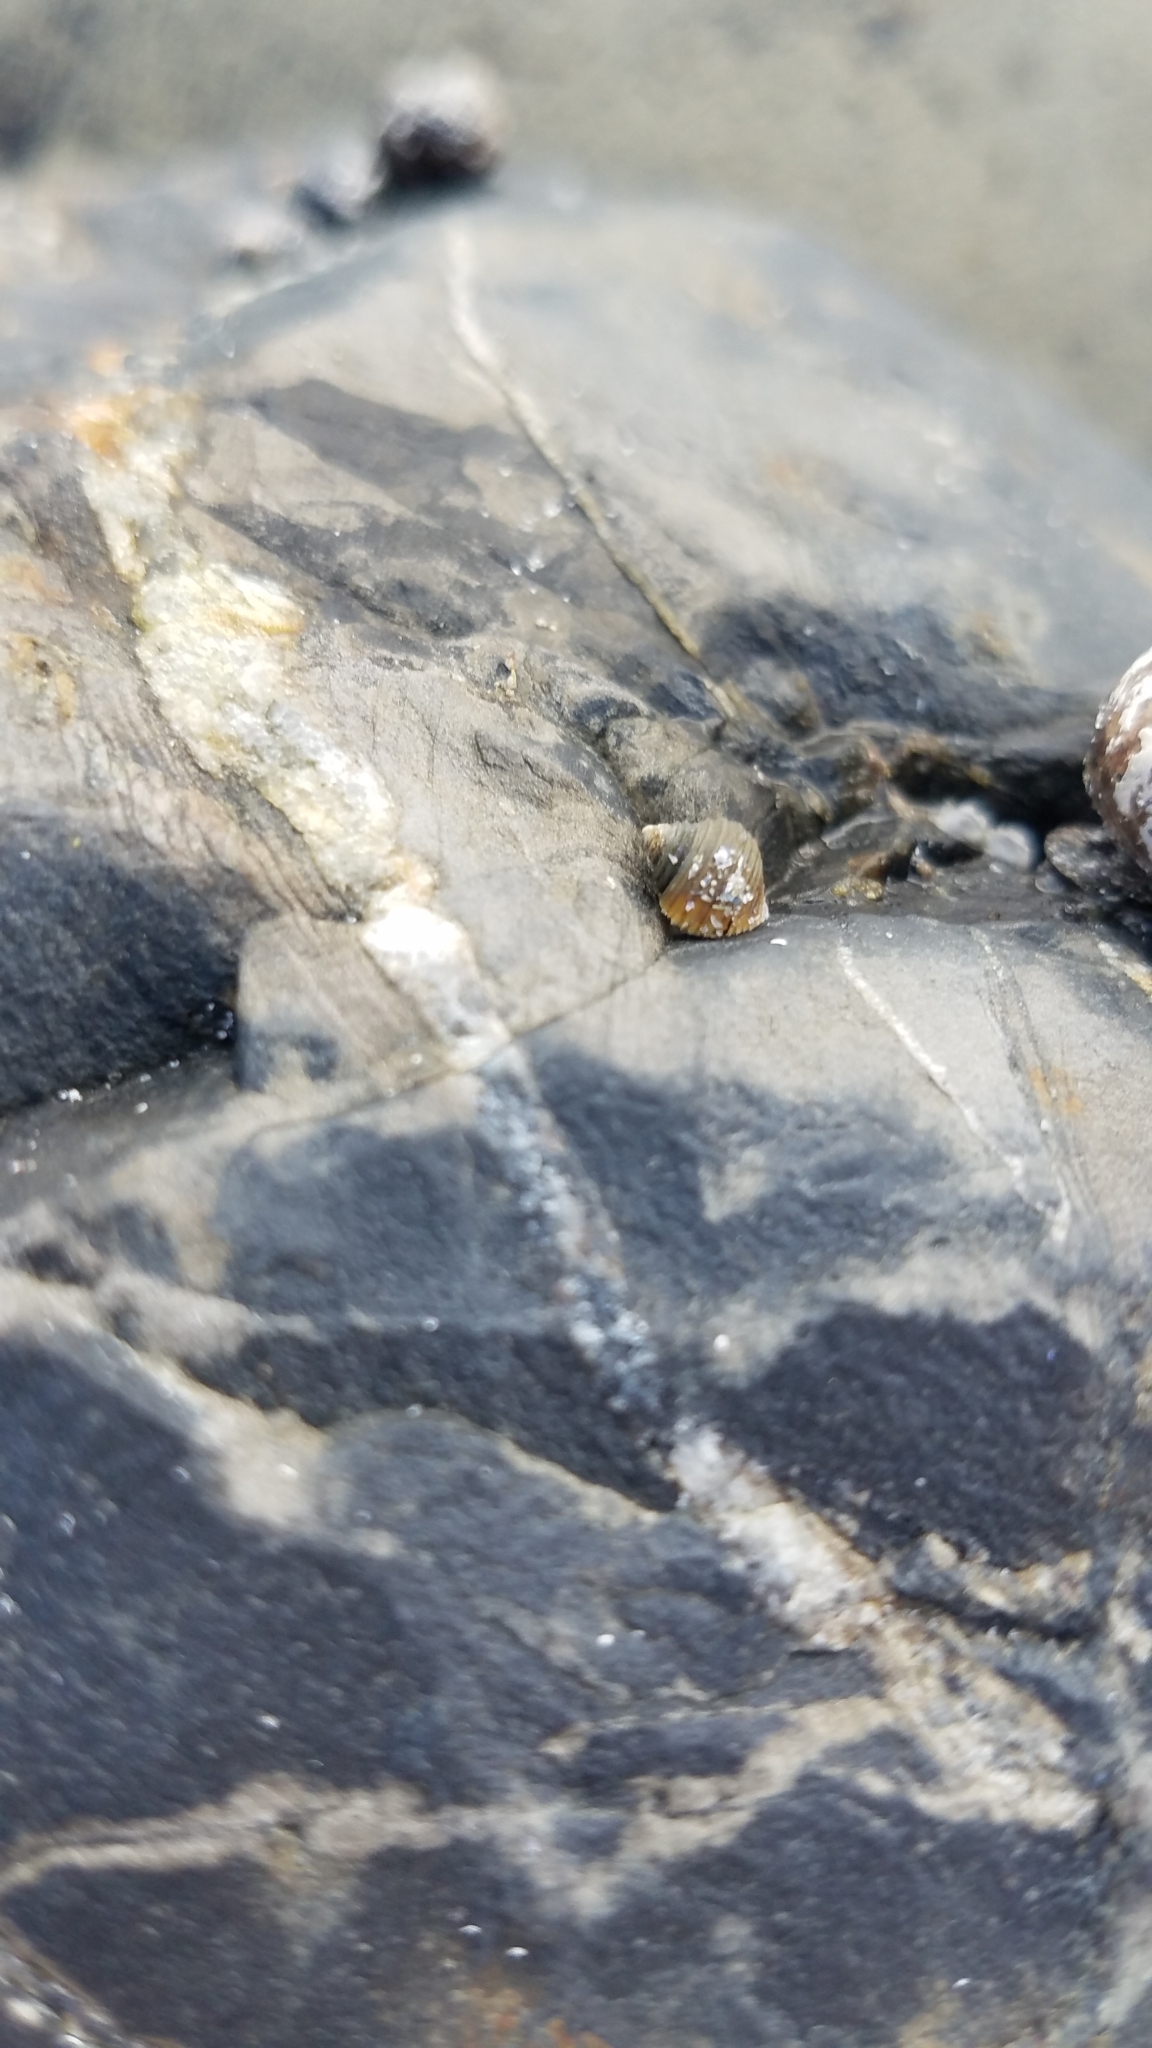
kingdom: Animalia
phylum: Mollusca
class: Gastropoda
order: Littorinimorpha
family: Littorinidae
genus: Littorina
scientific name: Littorina littorea
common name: Common periwinkle
